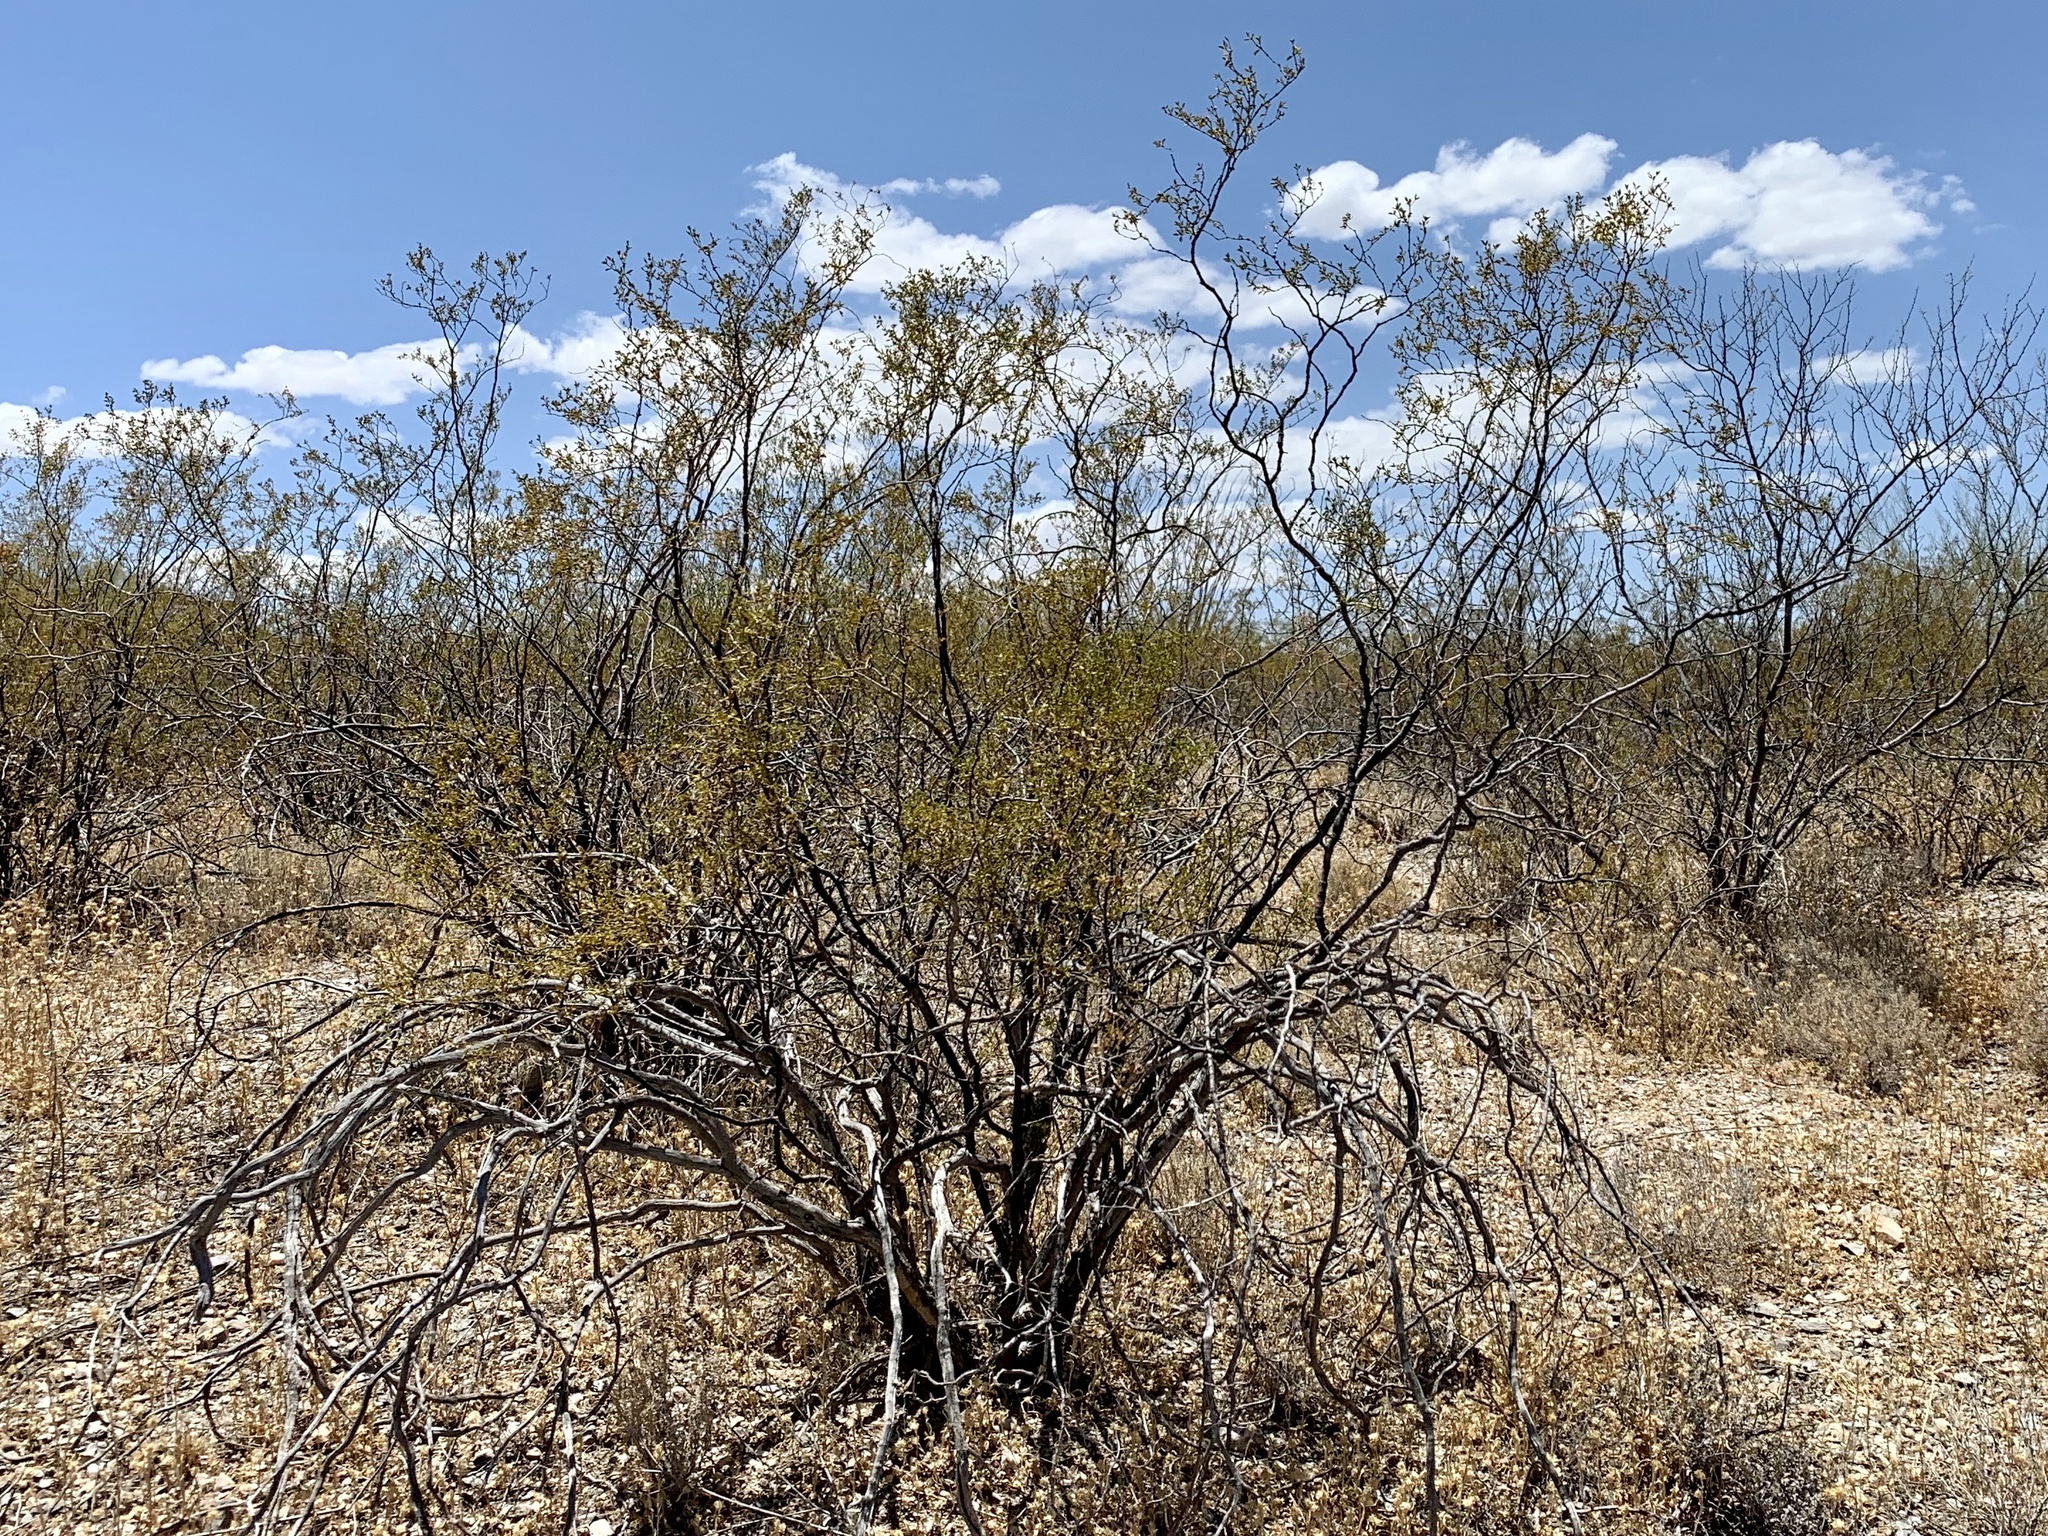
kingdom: Plantae
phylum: Tracheophyta
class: Magnoliopsida
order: Zygophyllales
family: Zygophyllaceae
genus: Larrea
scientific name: Larrea tridentata
